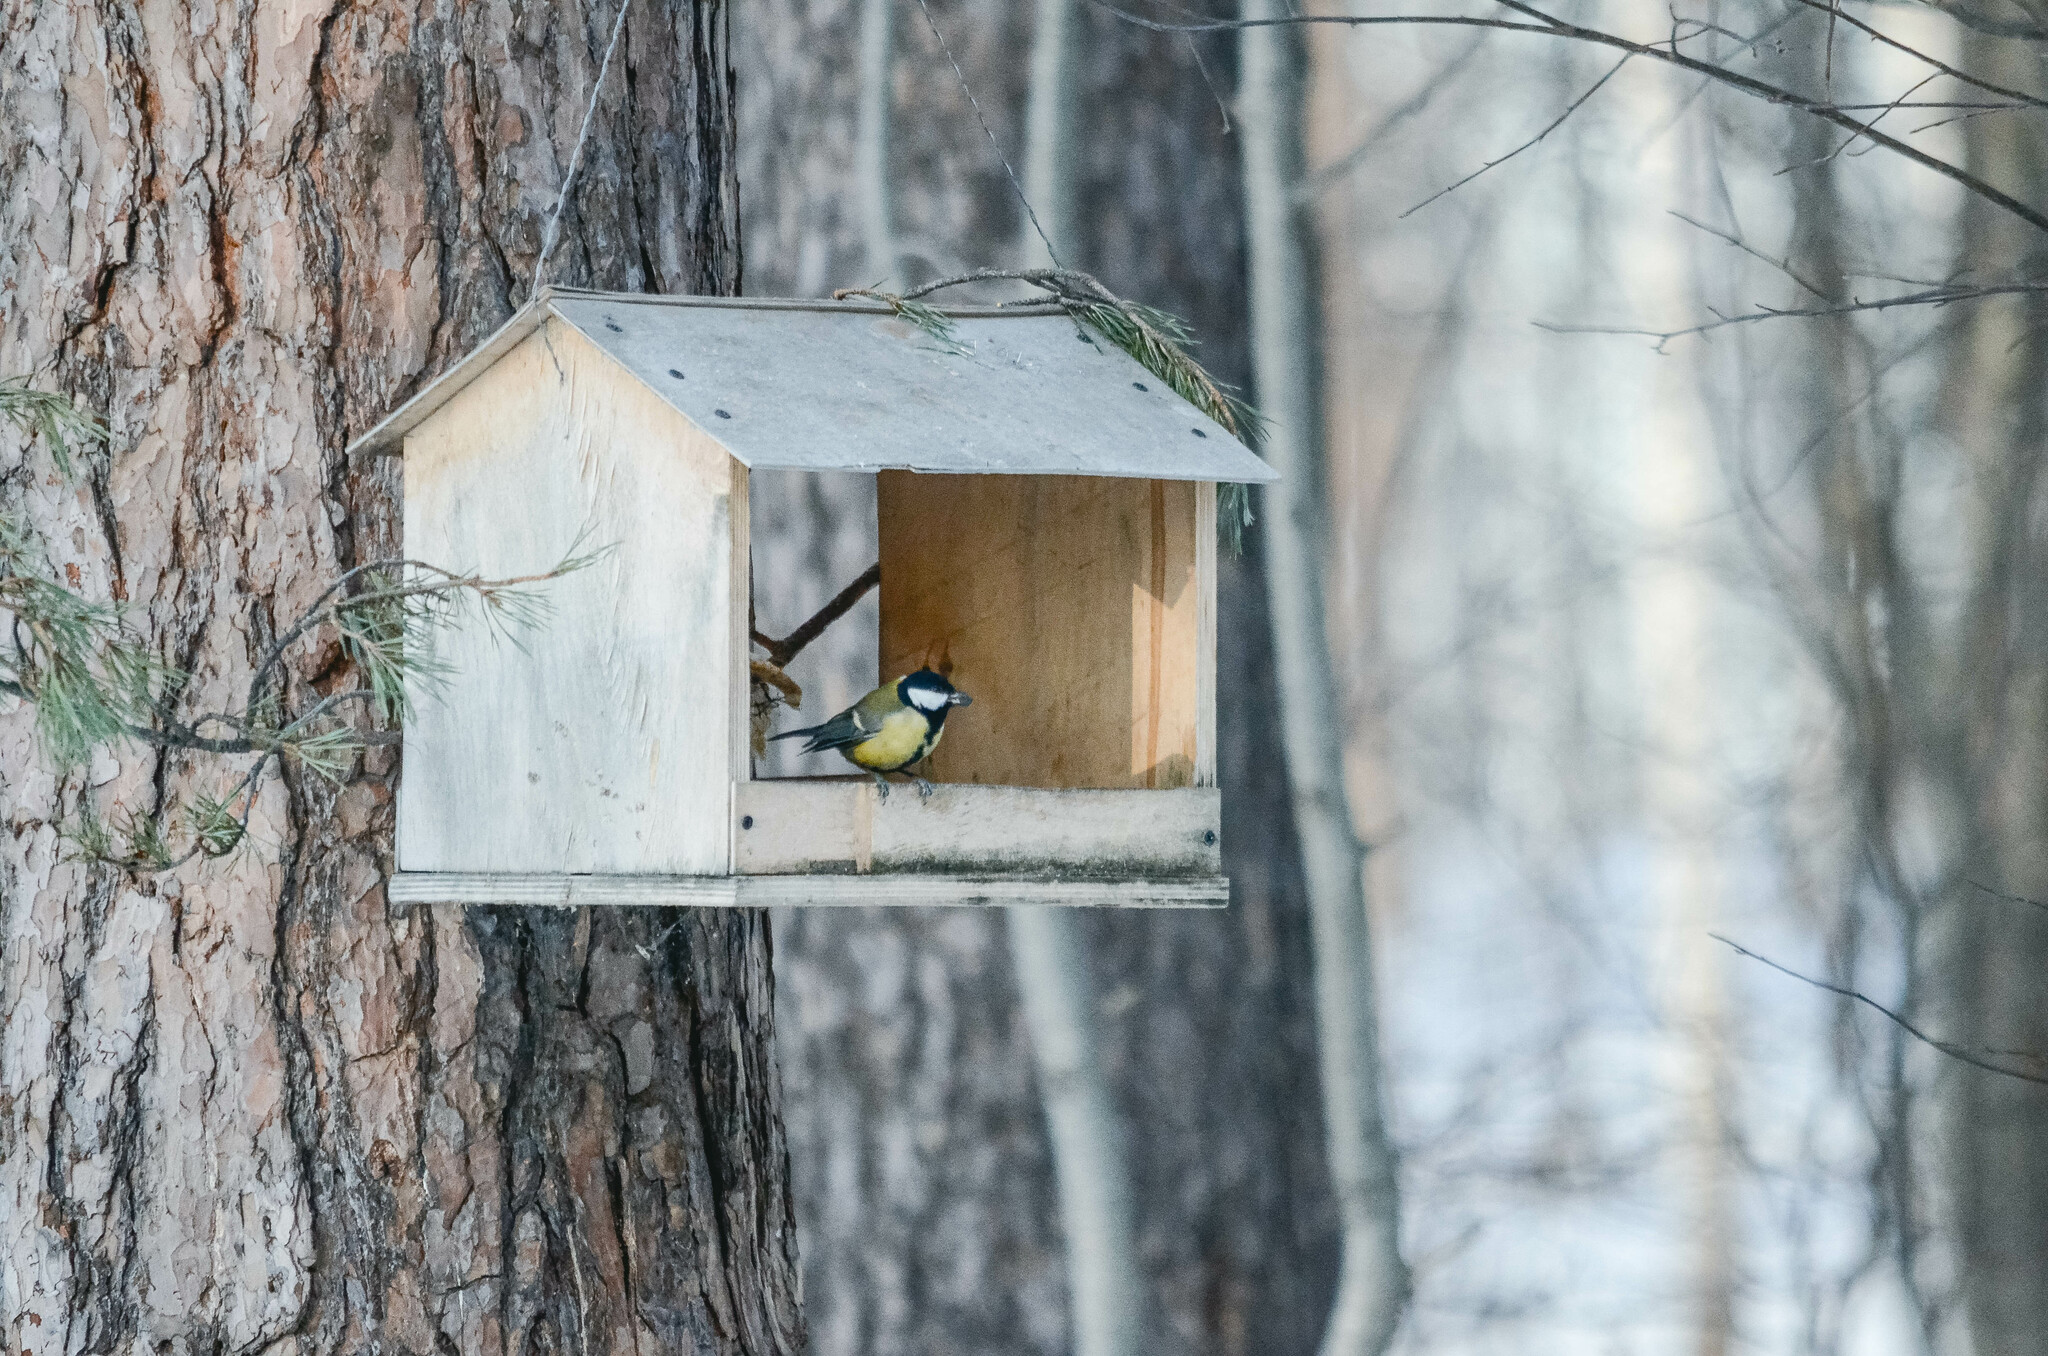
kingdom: Animalia
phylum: Chordata
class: Aves
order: Passeriformes
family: Paridae
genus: Parus
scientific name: Parus major
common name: Great tit
